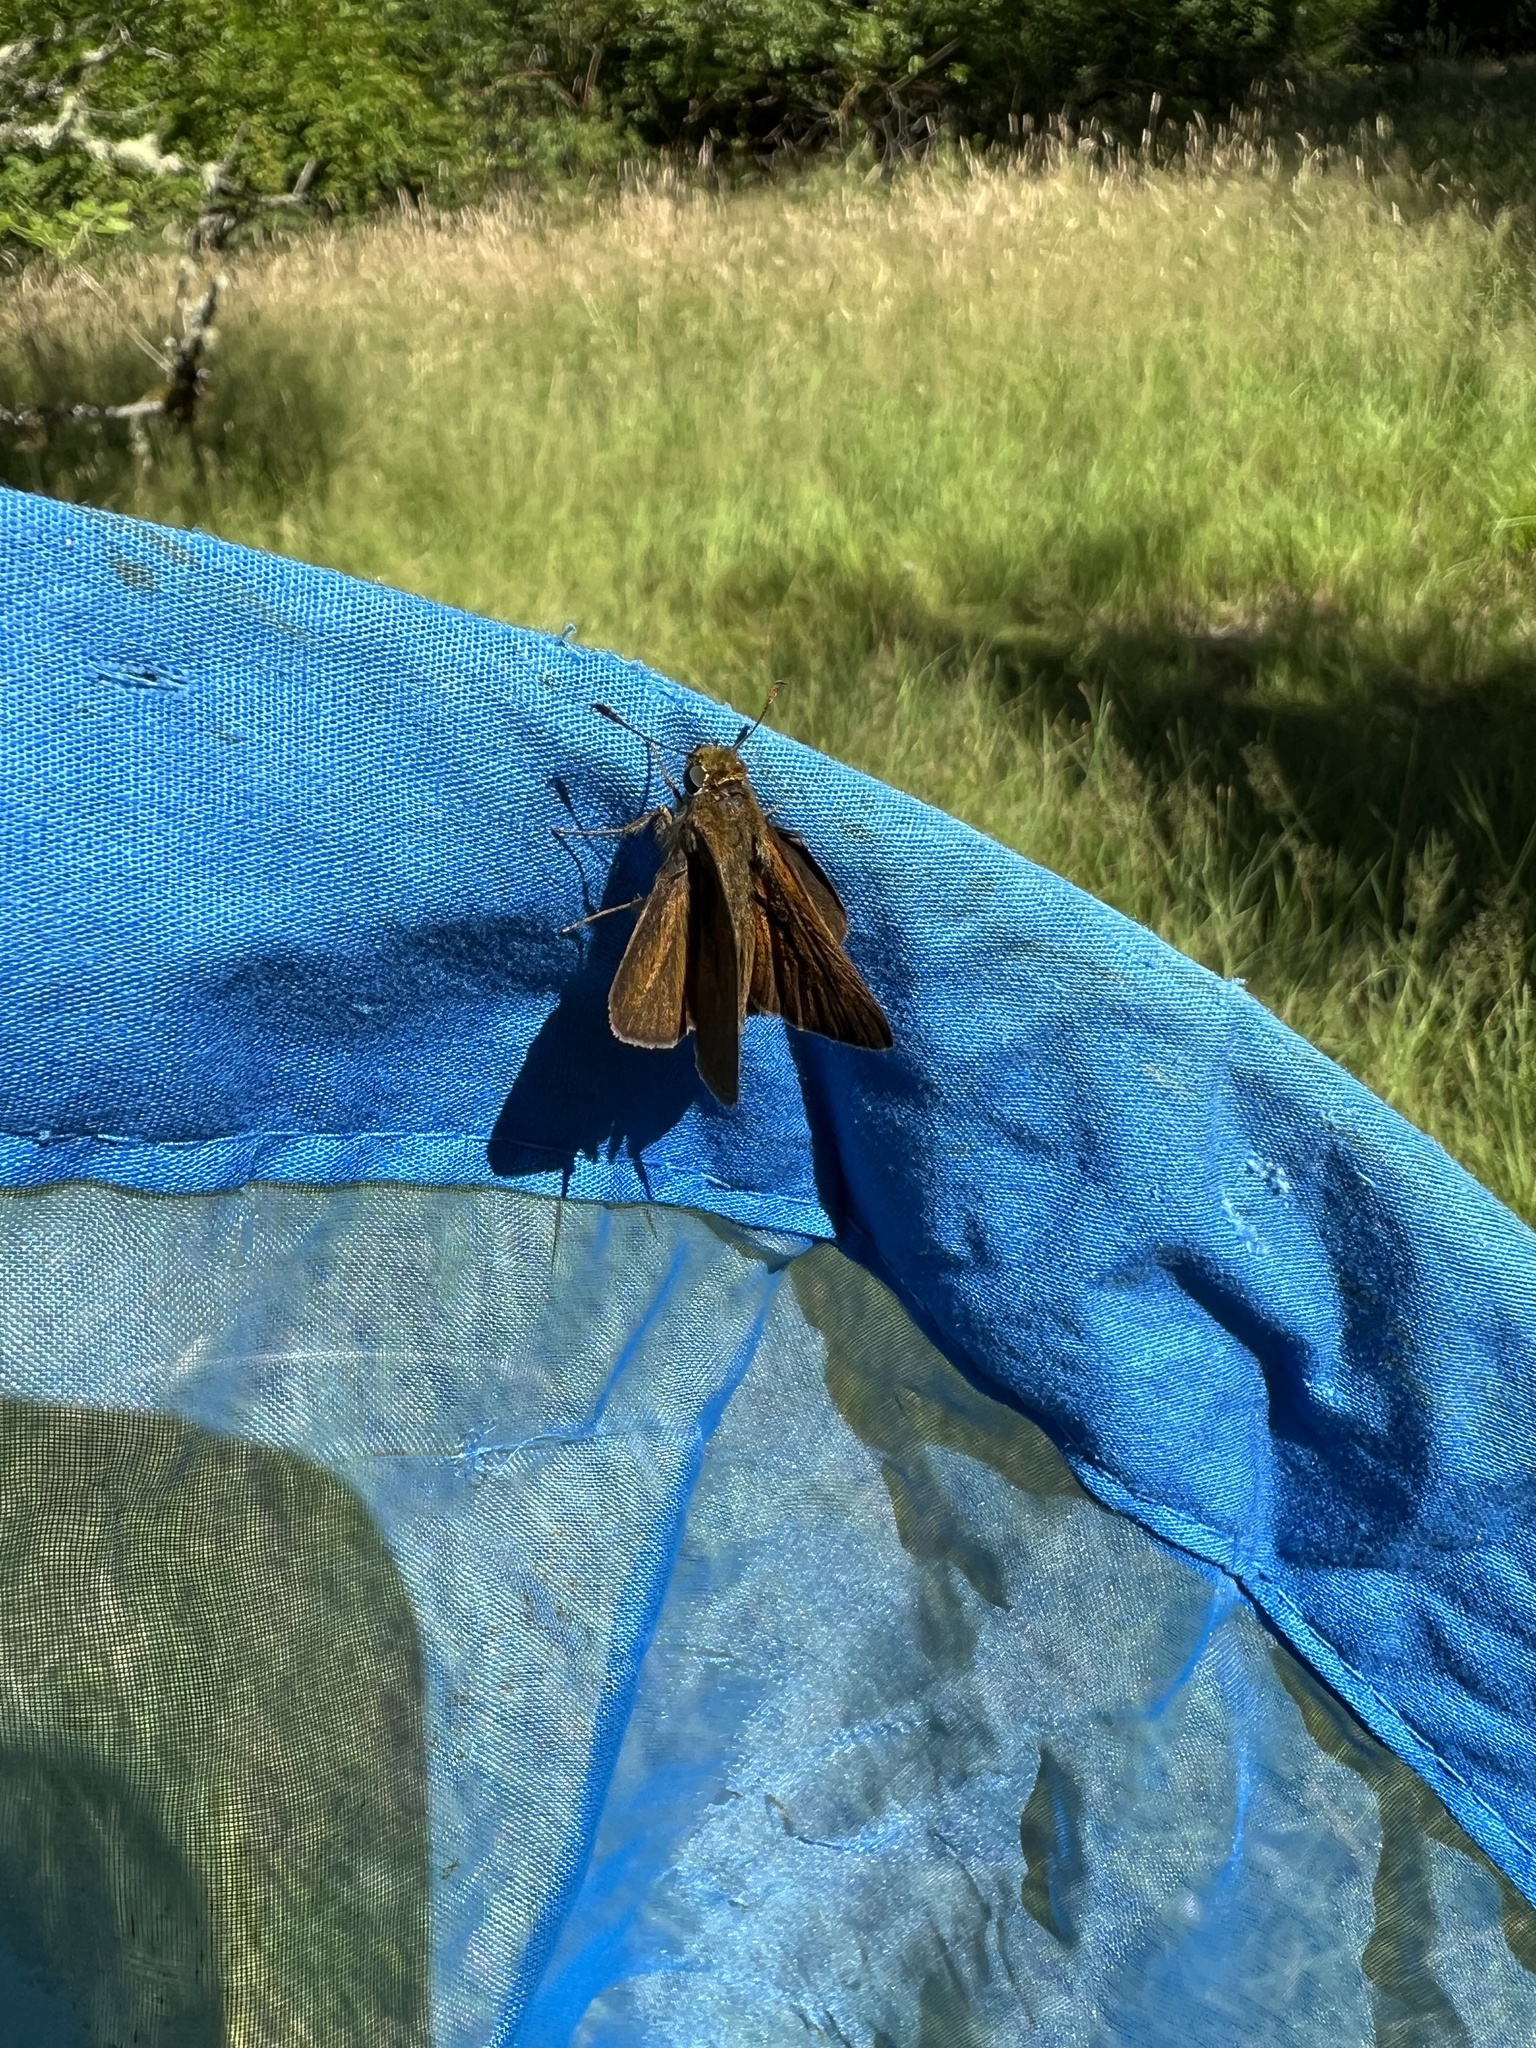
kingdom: Animalia
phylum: Arthropoda
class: Insecta
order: Lepidoptera
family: Hesperiidae
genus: Euphyes
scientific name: Euphyes vestris
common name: Dun skipper
